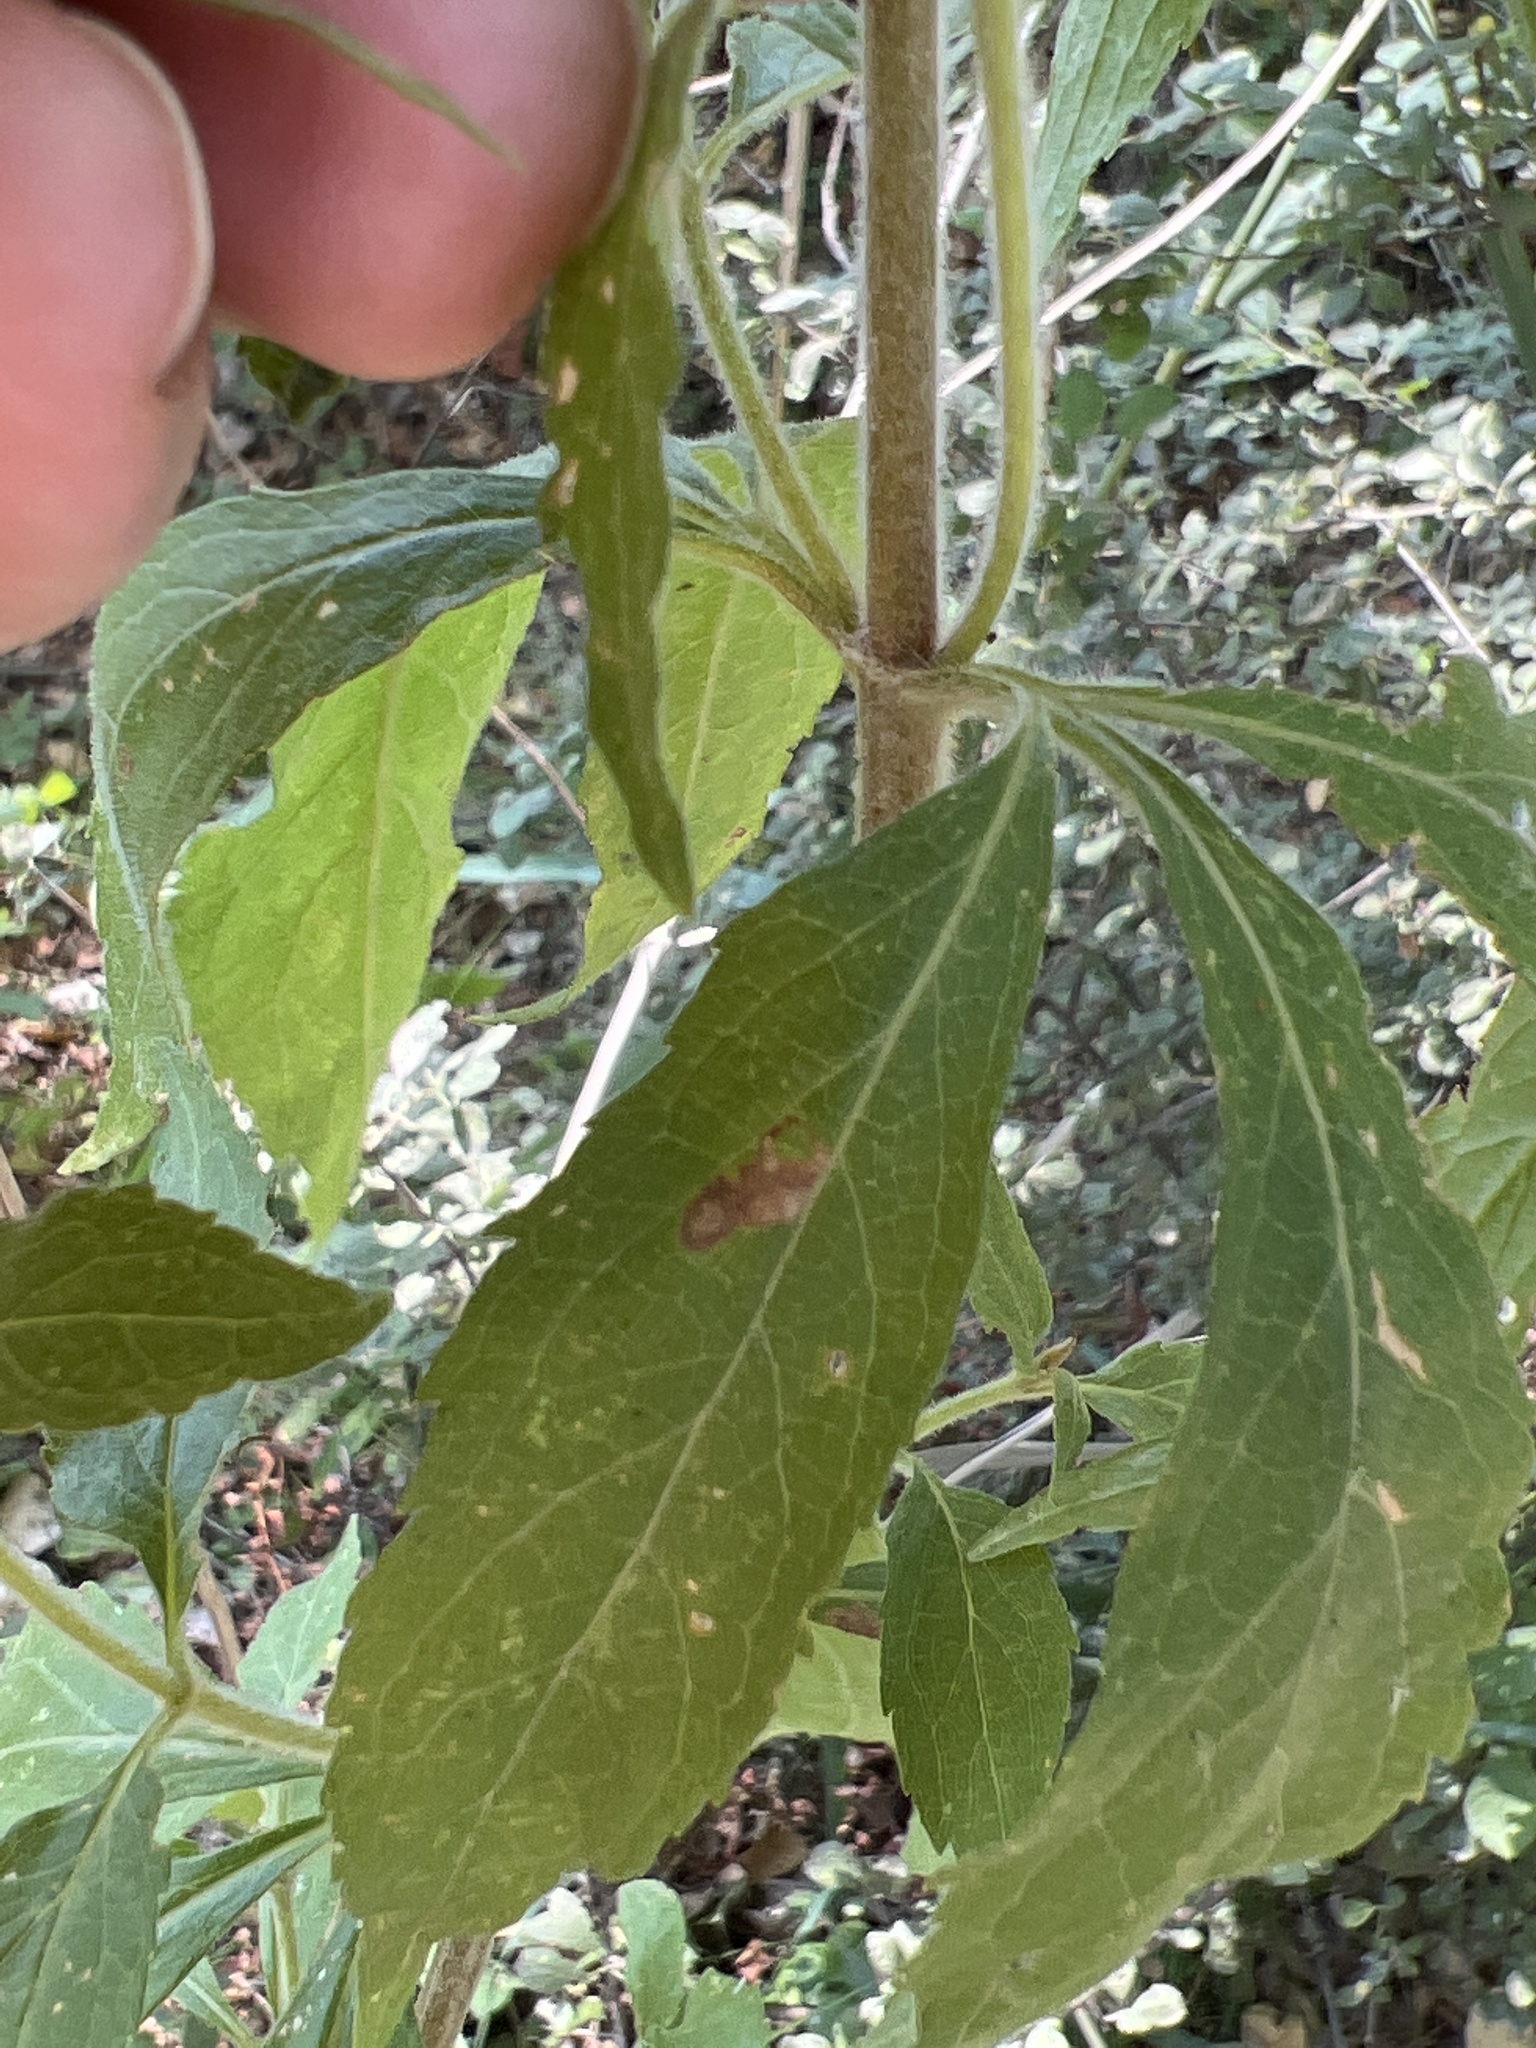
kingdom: Plantae
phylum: Tracheophyta
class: Magnoliopsida
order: Asterales
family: Asteraceae
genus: Eupatorium
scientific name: Eupatorium cannabinum
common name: Hemp-agrimony
